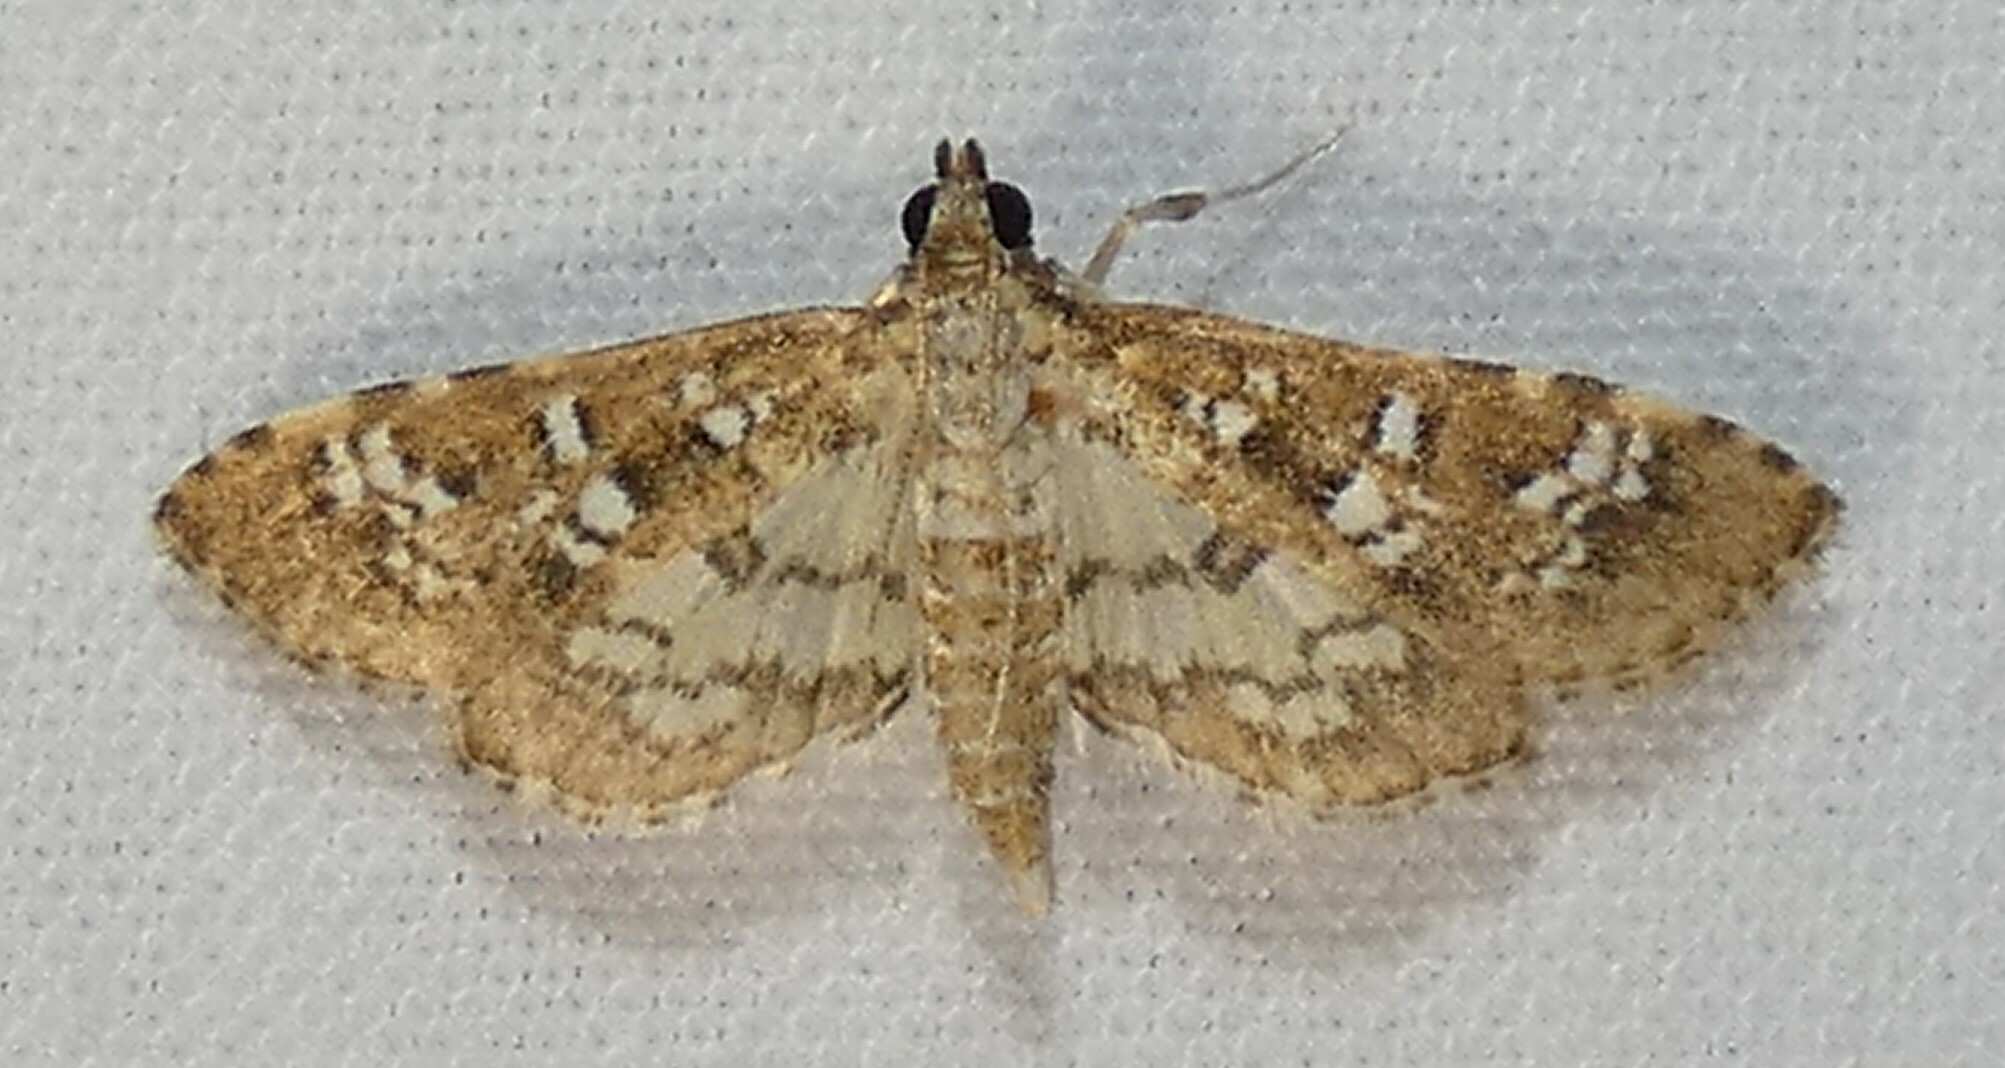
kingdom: Animalia
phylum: Arthropoda
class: Insecta
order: Lepidoptera
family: Crambidae
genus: Samea
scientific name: Samea multiplicalis
